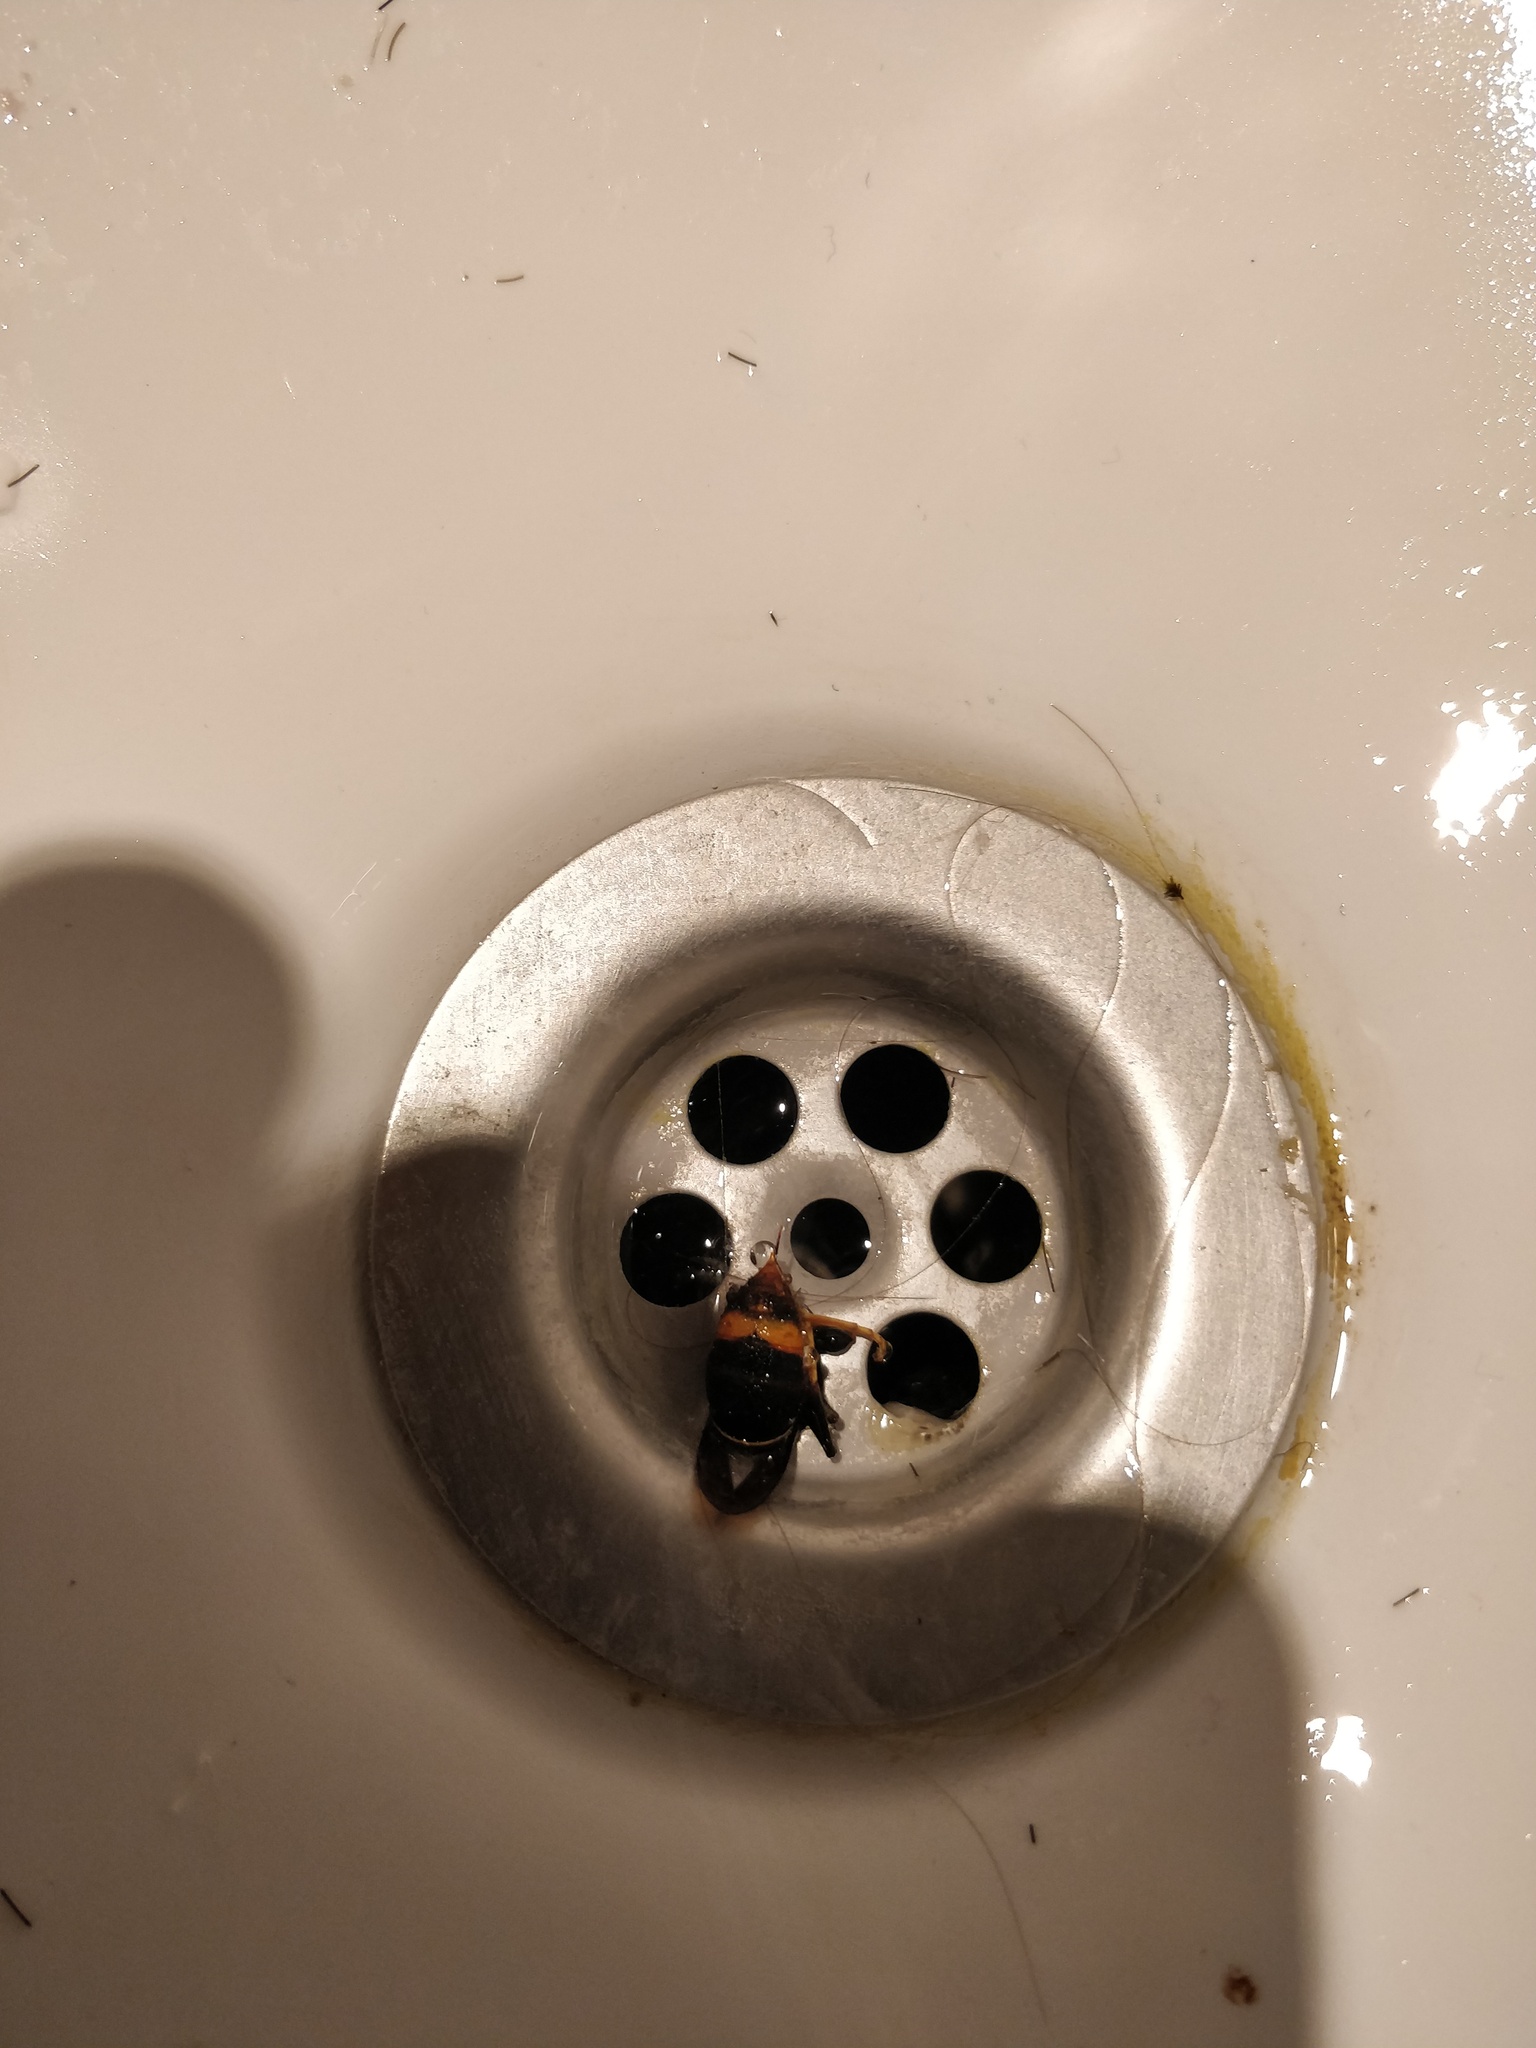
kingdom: Animalia
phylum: Arthropoda
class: Insecta
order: Hymenoptera
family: Vespidae
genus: Vespa
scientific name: Vespa velutina
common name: Asian hornet
